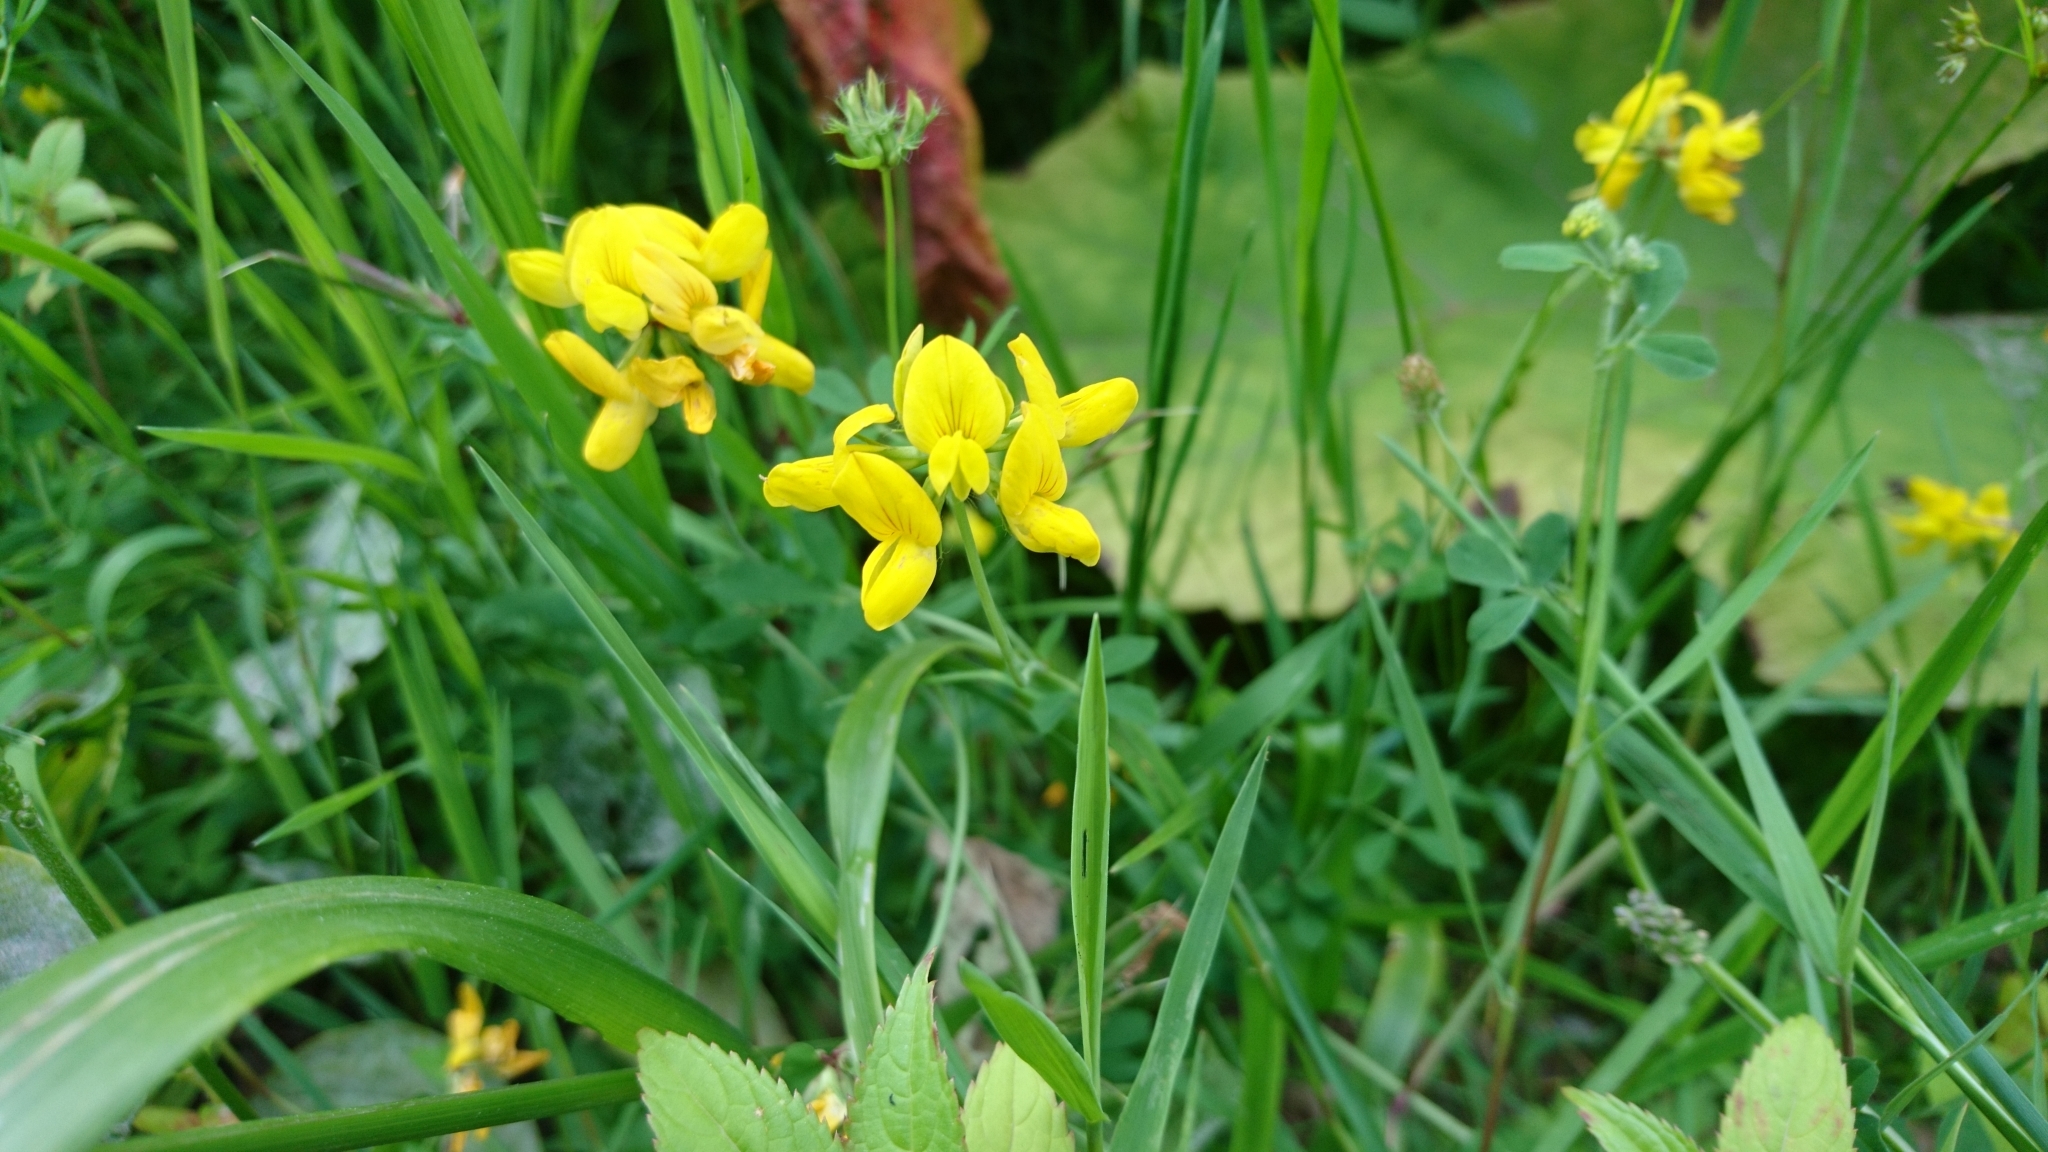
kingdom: Plantae
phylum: Tracheophyta
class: Magnoliopsida
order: Fabales
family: Fabaceae
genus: Lotus
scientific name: Lotus corniculatus
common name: Common bird's-foot-trefoil
